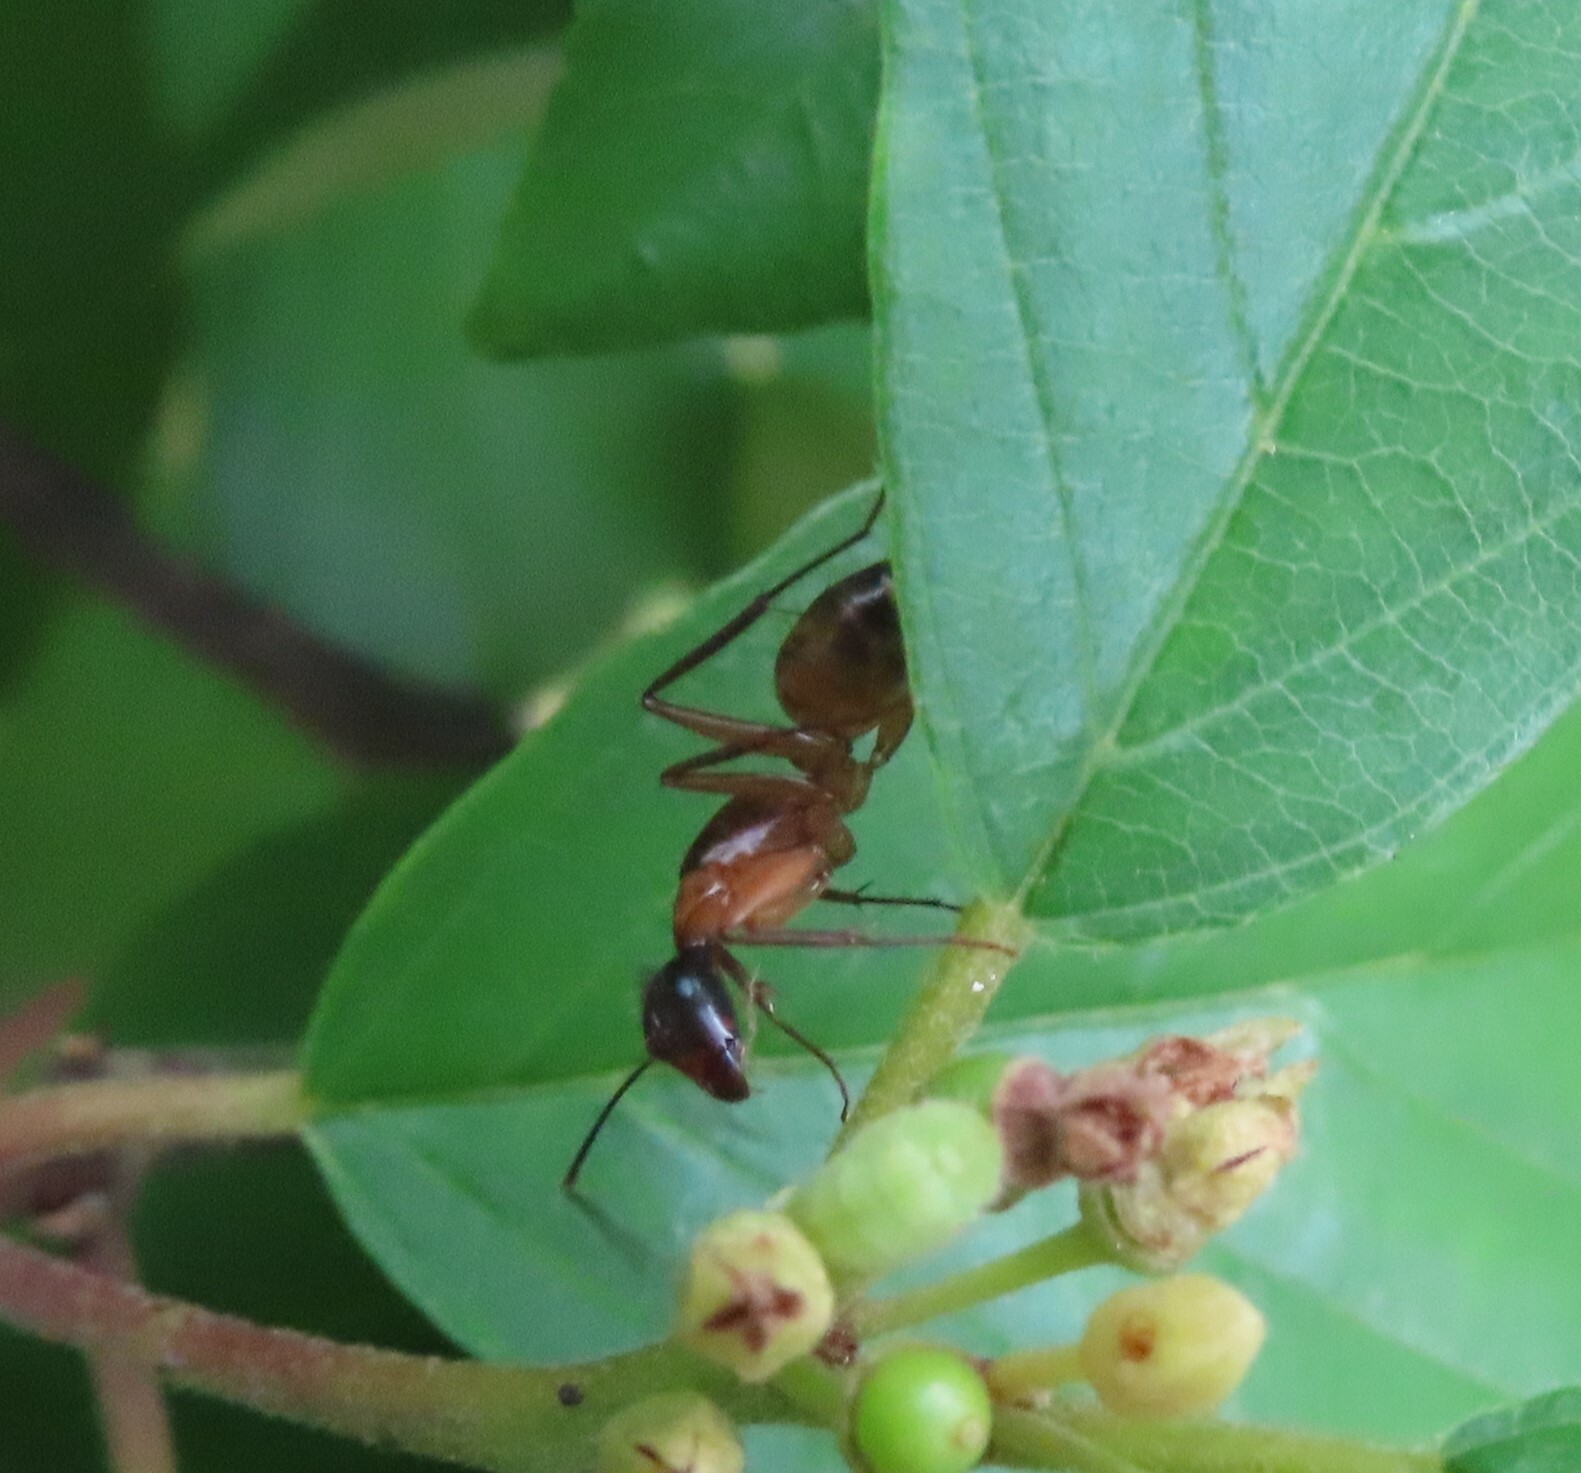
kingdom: Animalia
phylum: Arthropoda
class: Insecta
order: Hymenoptera
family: Formicidae
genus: Camponotus
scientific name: Camponotus americanus
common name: American carpenter ant
